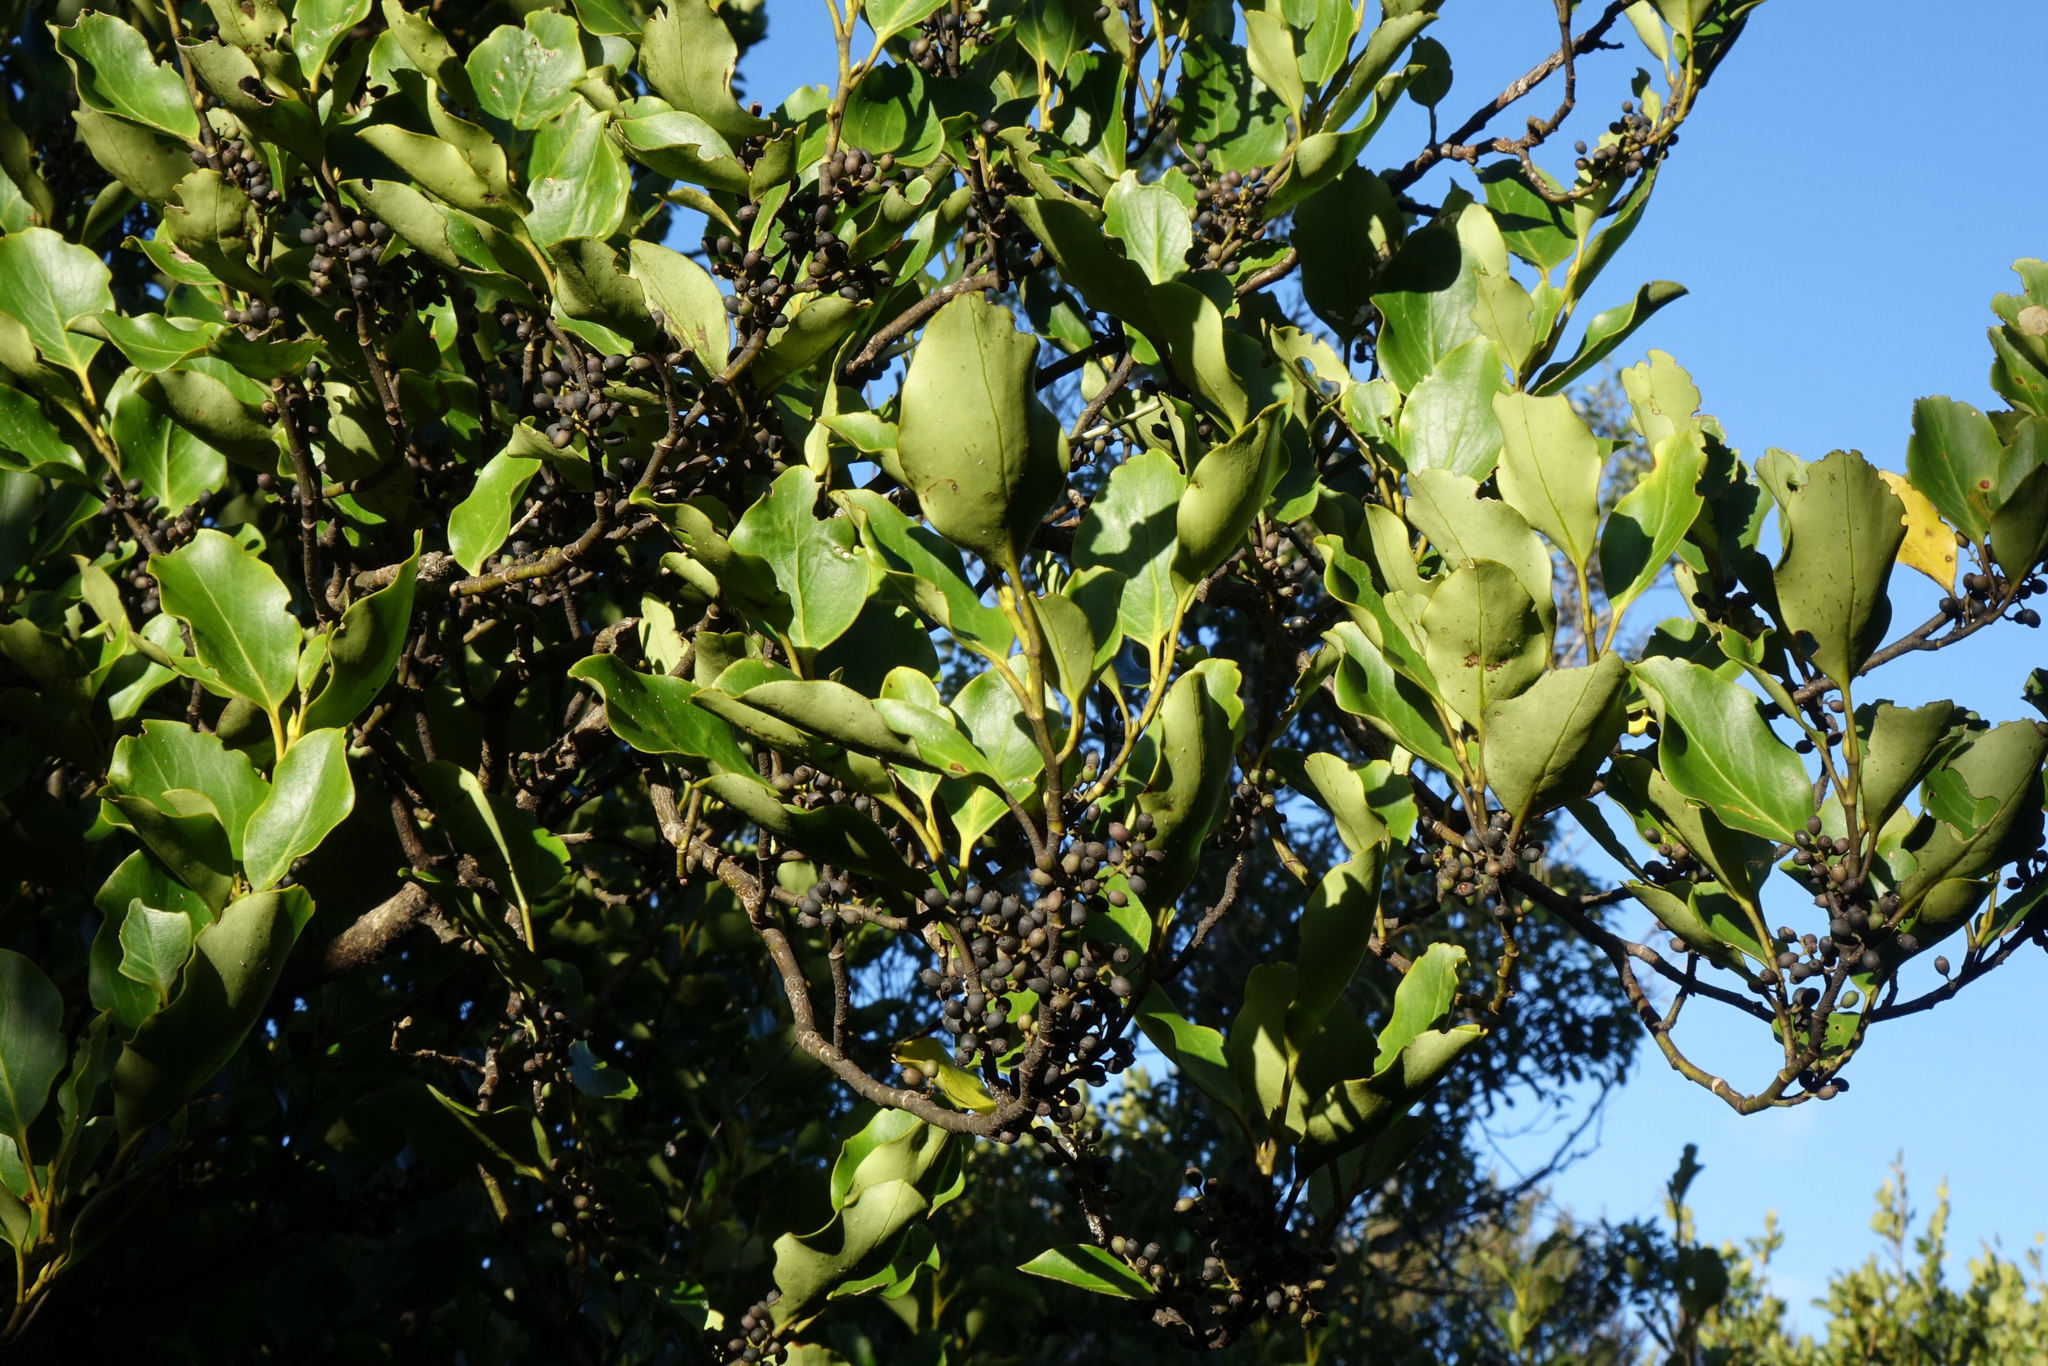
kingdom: Plantae
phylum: Tracheophyta
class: Magnoliopsida
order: Apiales
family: Griseliniaceae
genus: Griselinia
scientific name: Griselinia littoralis
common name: New zealand broadleaf
